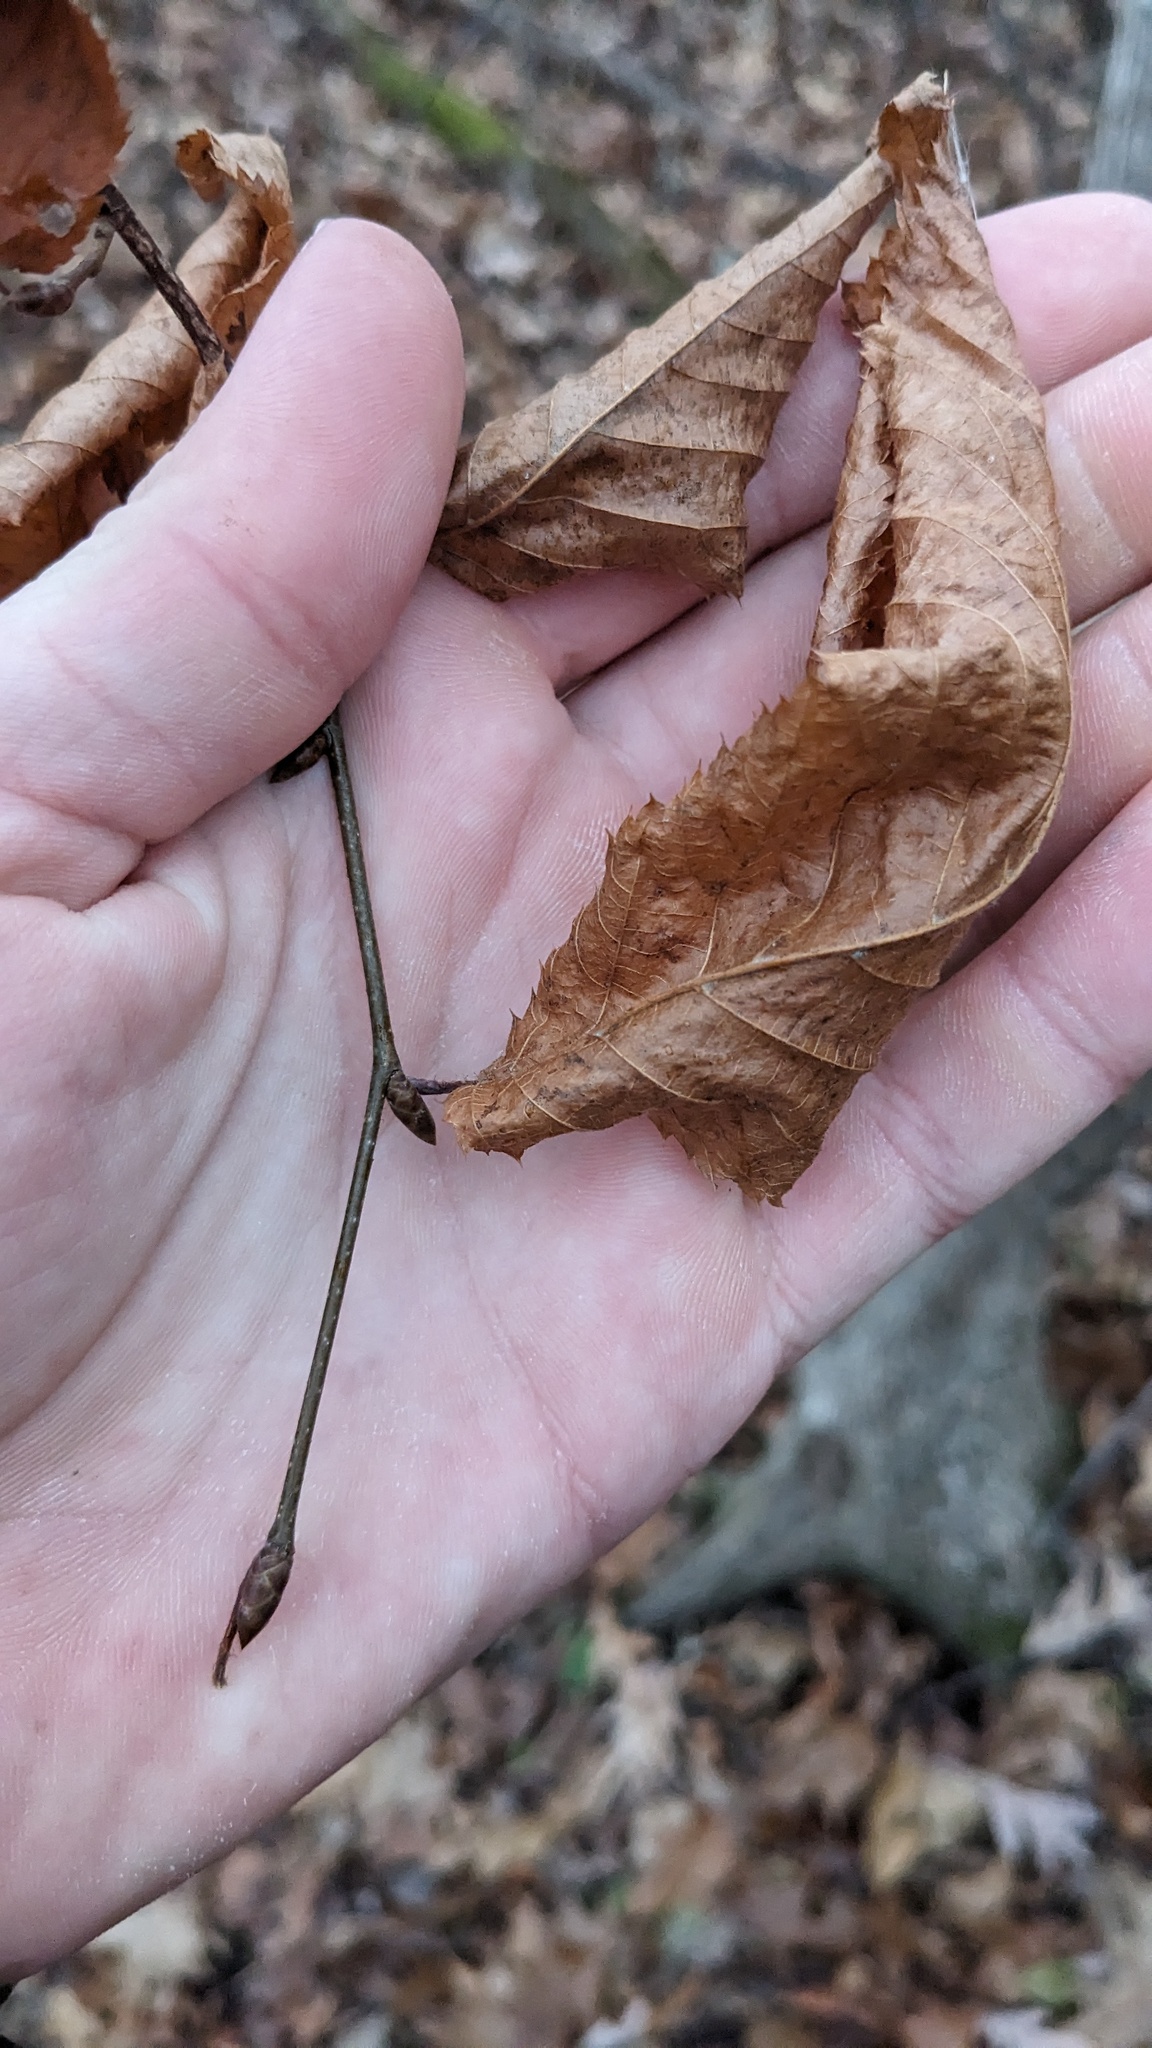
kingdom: Plantae
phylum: Tracheophyta
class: Magnoliopsida
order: Fagales
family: Betulaceae
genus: Ostrya
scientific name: Ostrya virginiana
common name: Ironwood
